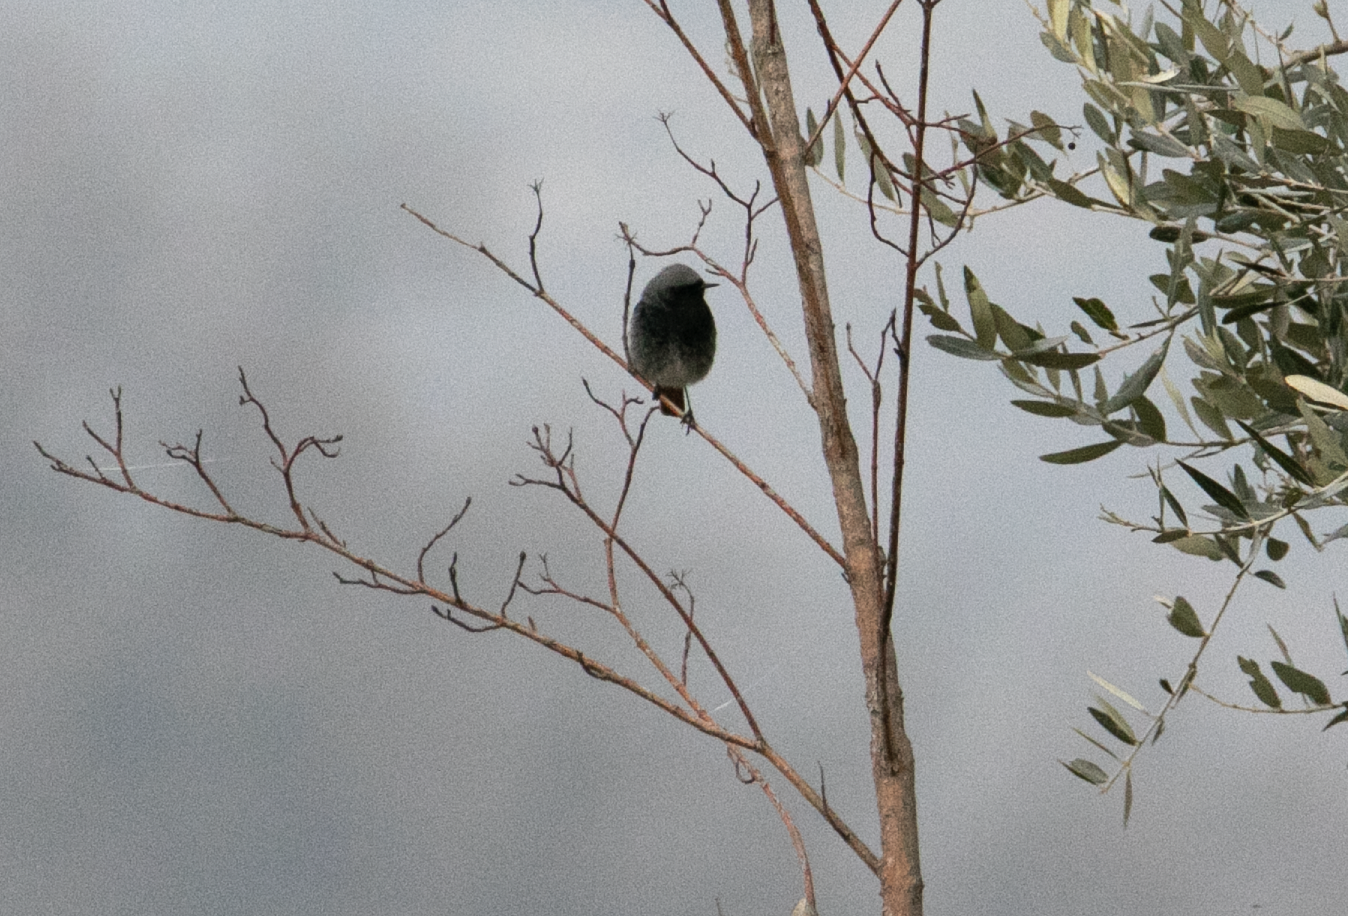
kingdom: Animalia
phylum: Chordata
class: Aves
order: Passeriformes
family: Muscicapidae
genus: Phoenicurus
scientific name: Phoenicurus ochruros
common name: Black redstart
